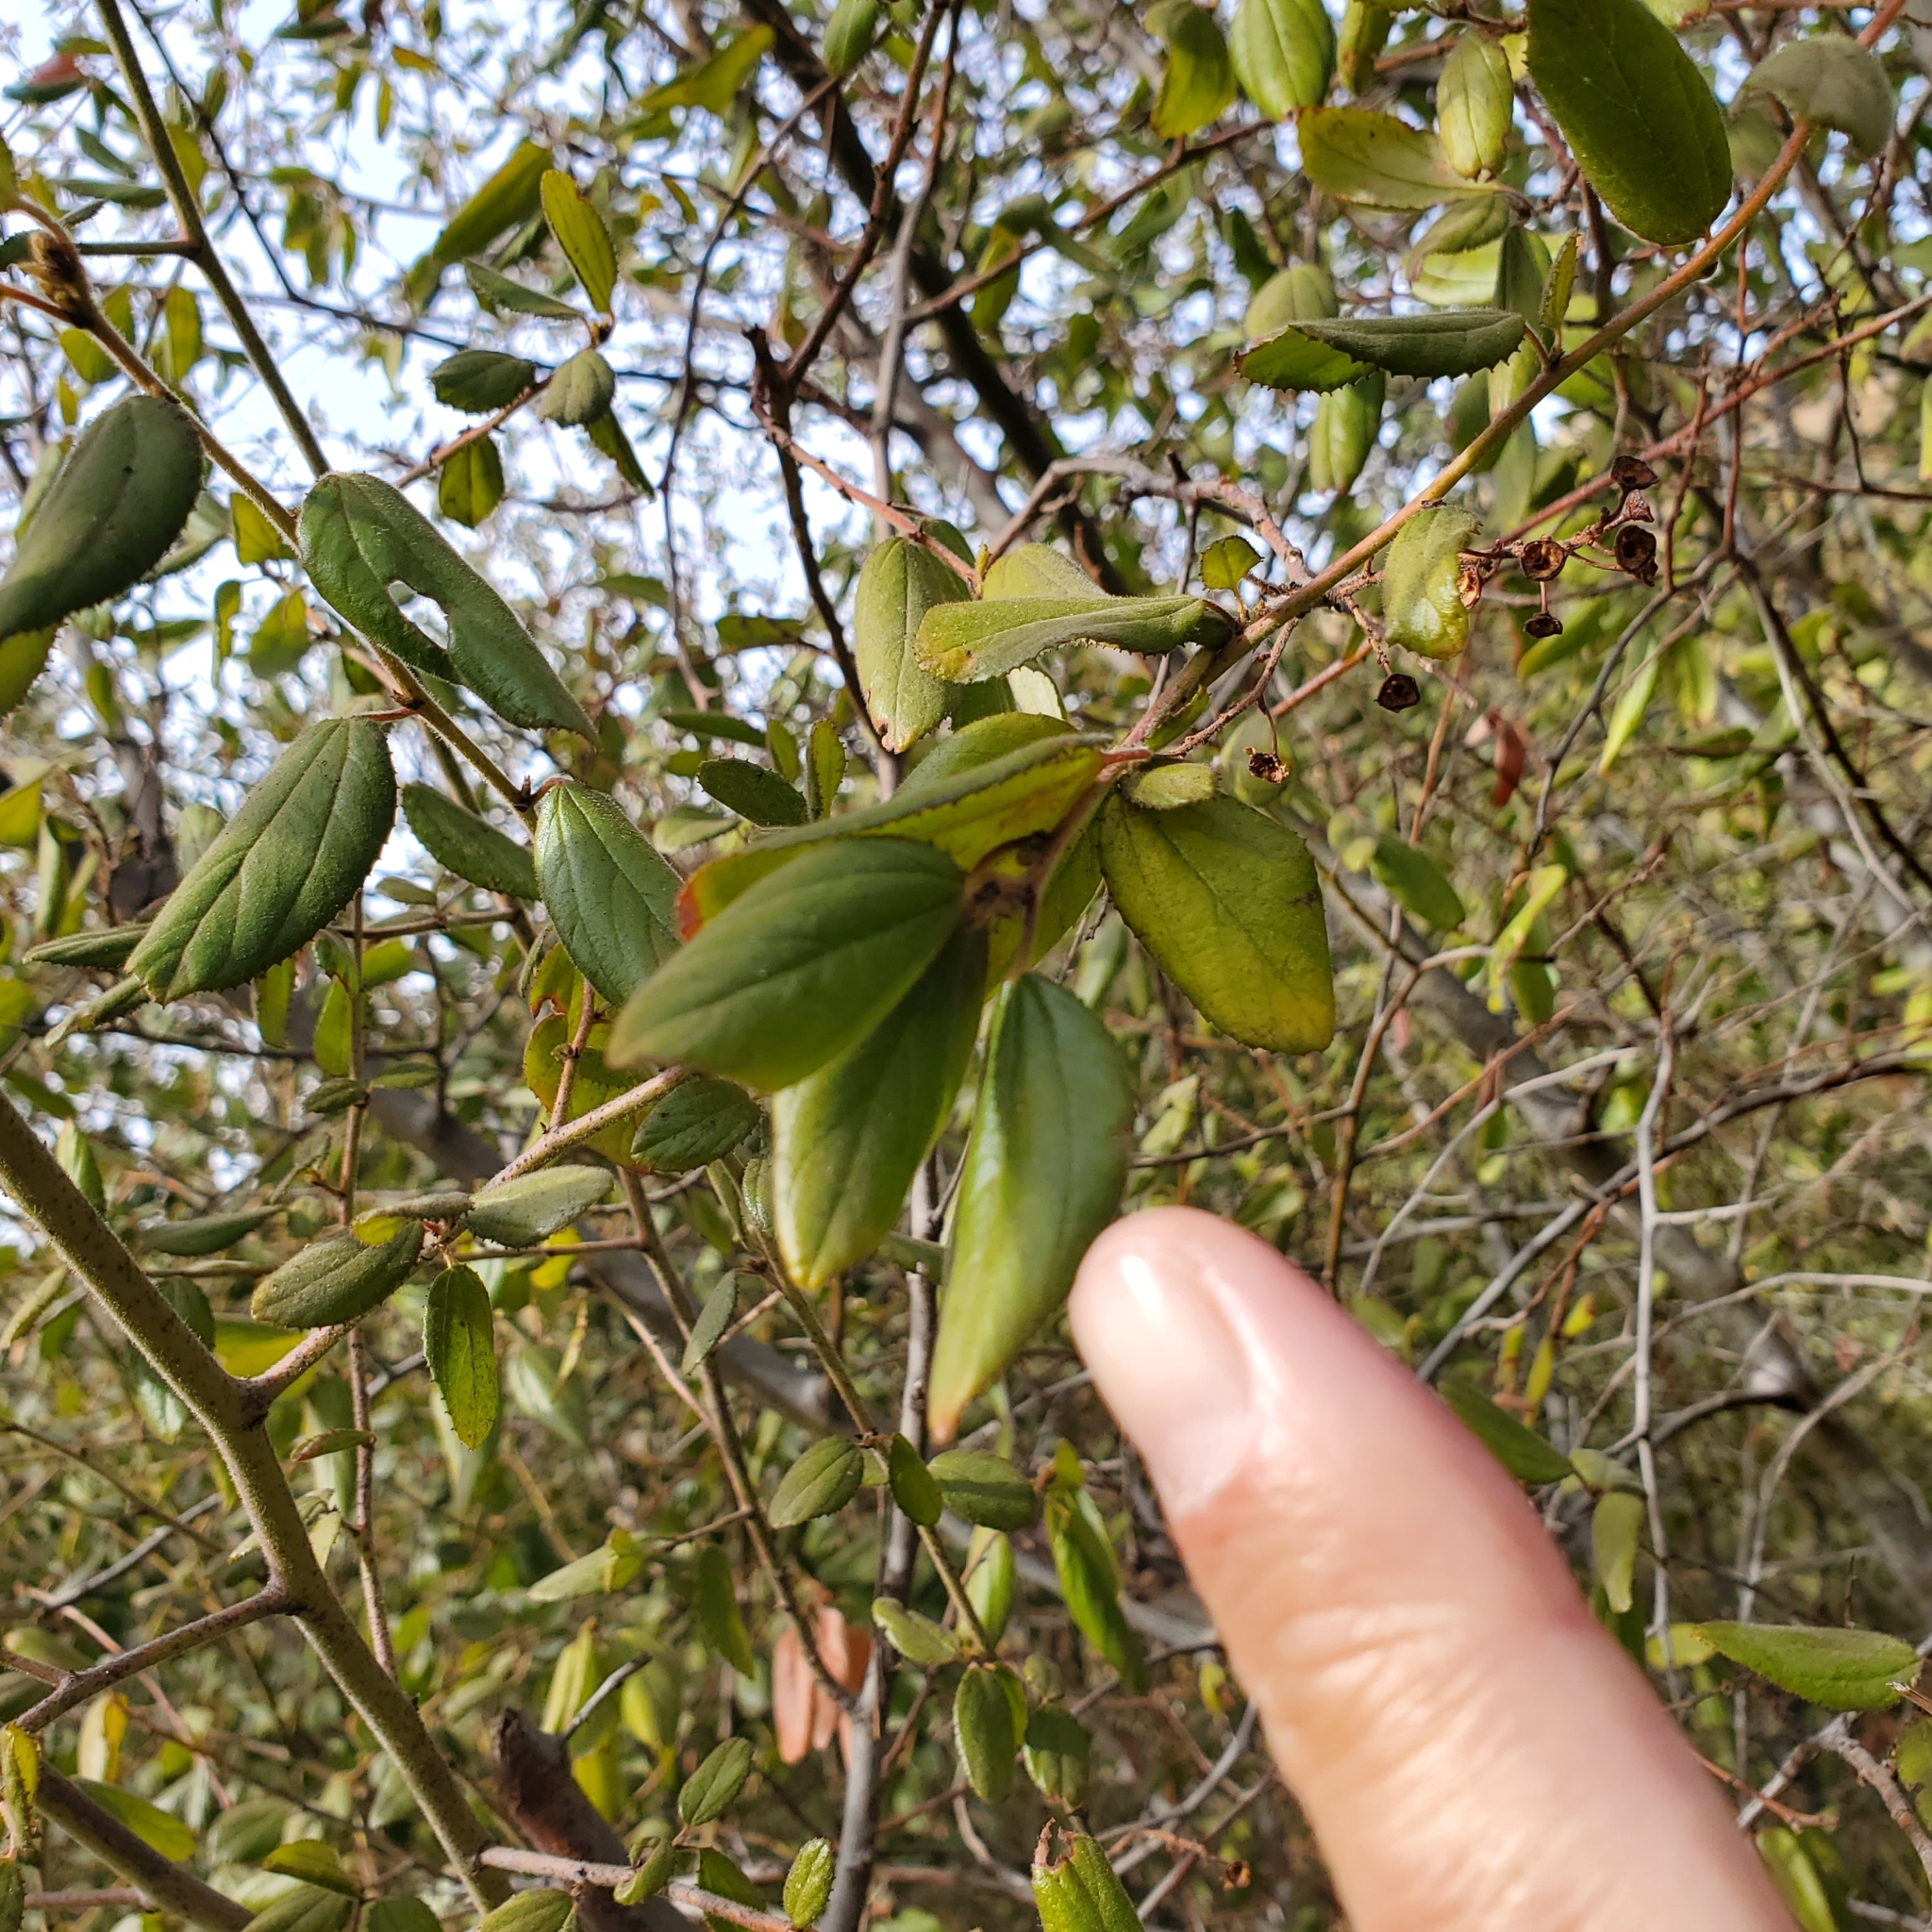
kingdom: Plantae
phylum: Tracheophyta
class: Magnoliopsida
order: Rosales
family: Rhamnaceae
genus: Ceanothus
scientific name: Ceanothus oliganthus
